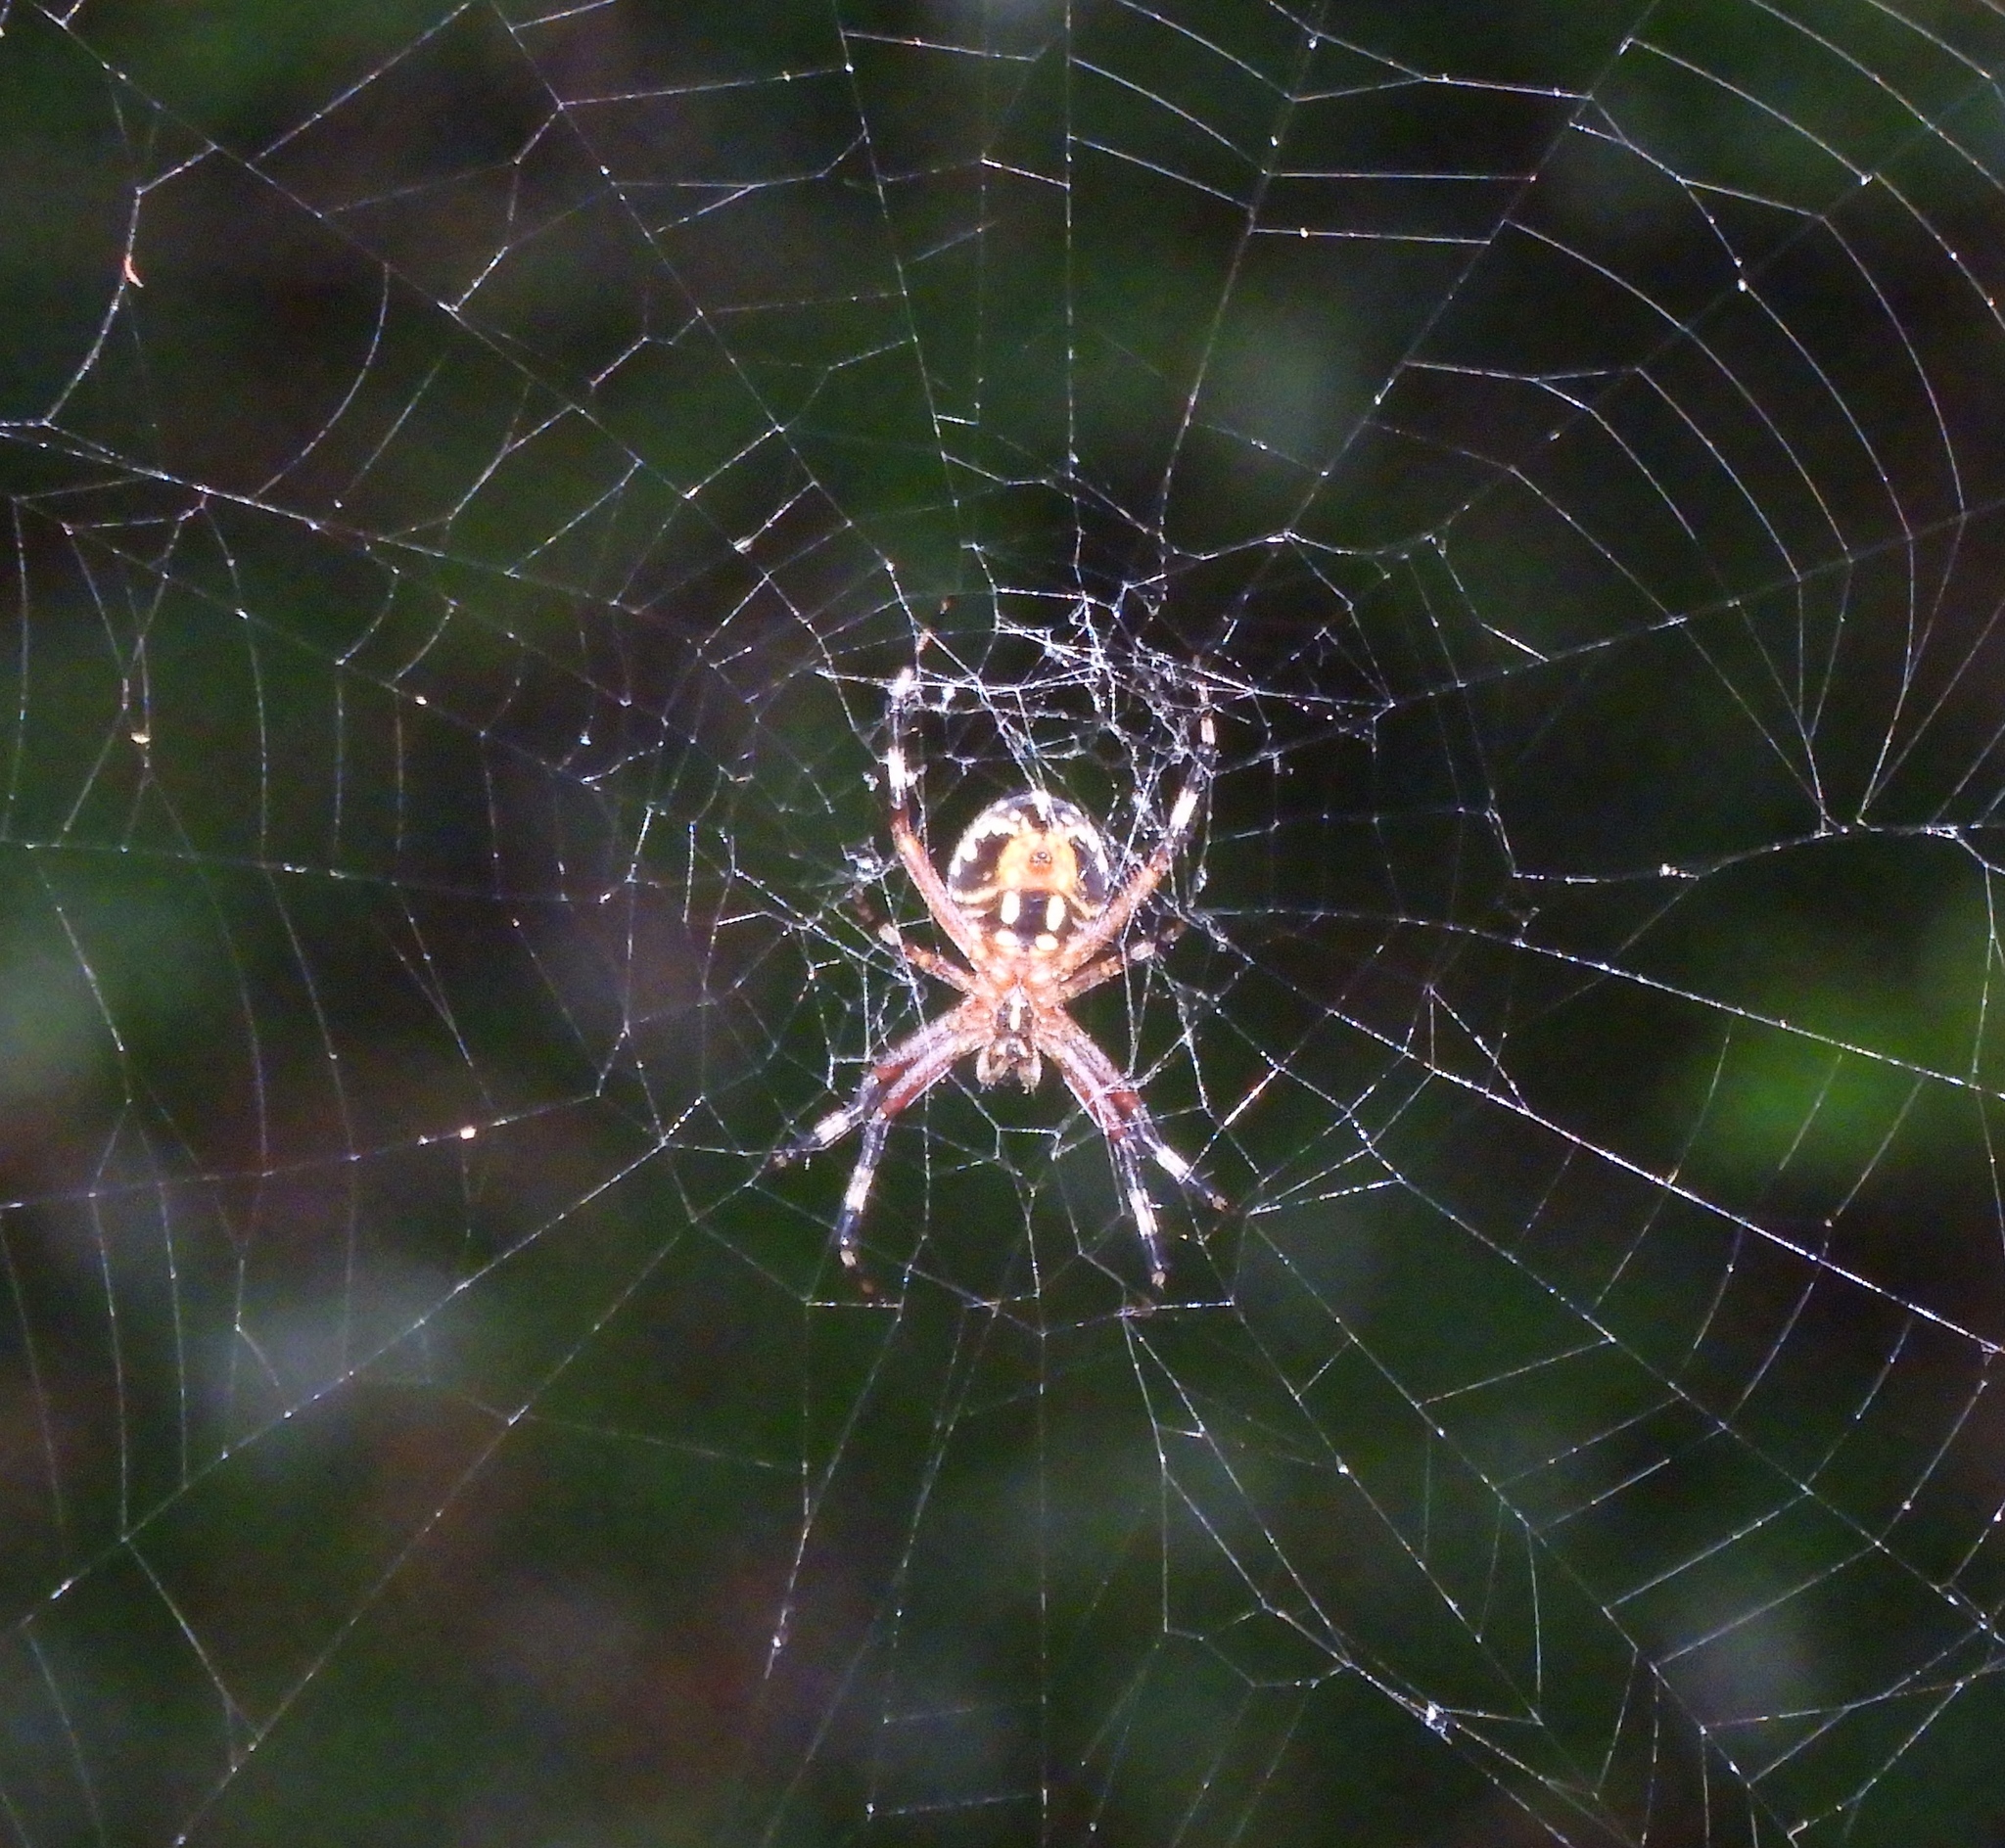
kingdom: Animalia
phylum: Arthropoda
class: Arachnida
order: Araneae
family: Araneidae
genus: Neoscona
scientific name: Neoscona
